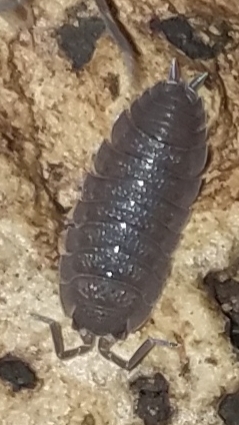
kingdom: Animalia
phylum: Arthropoda
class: Malacostraca
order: Isopoda
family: Porcellionidae
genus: Porcellio
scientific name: Porcellio scaber
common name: Common rough woodlouse
